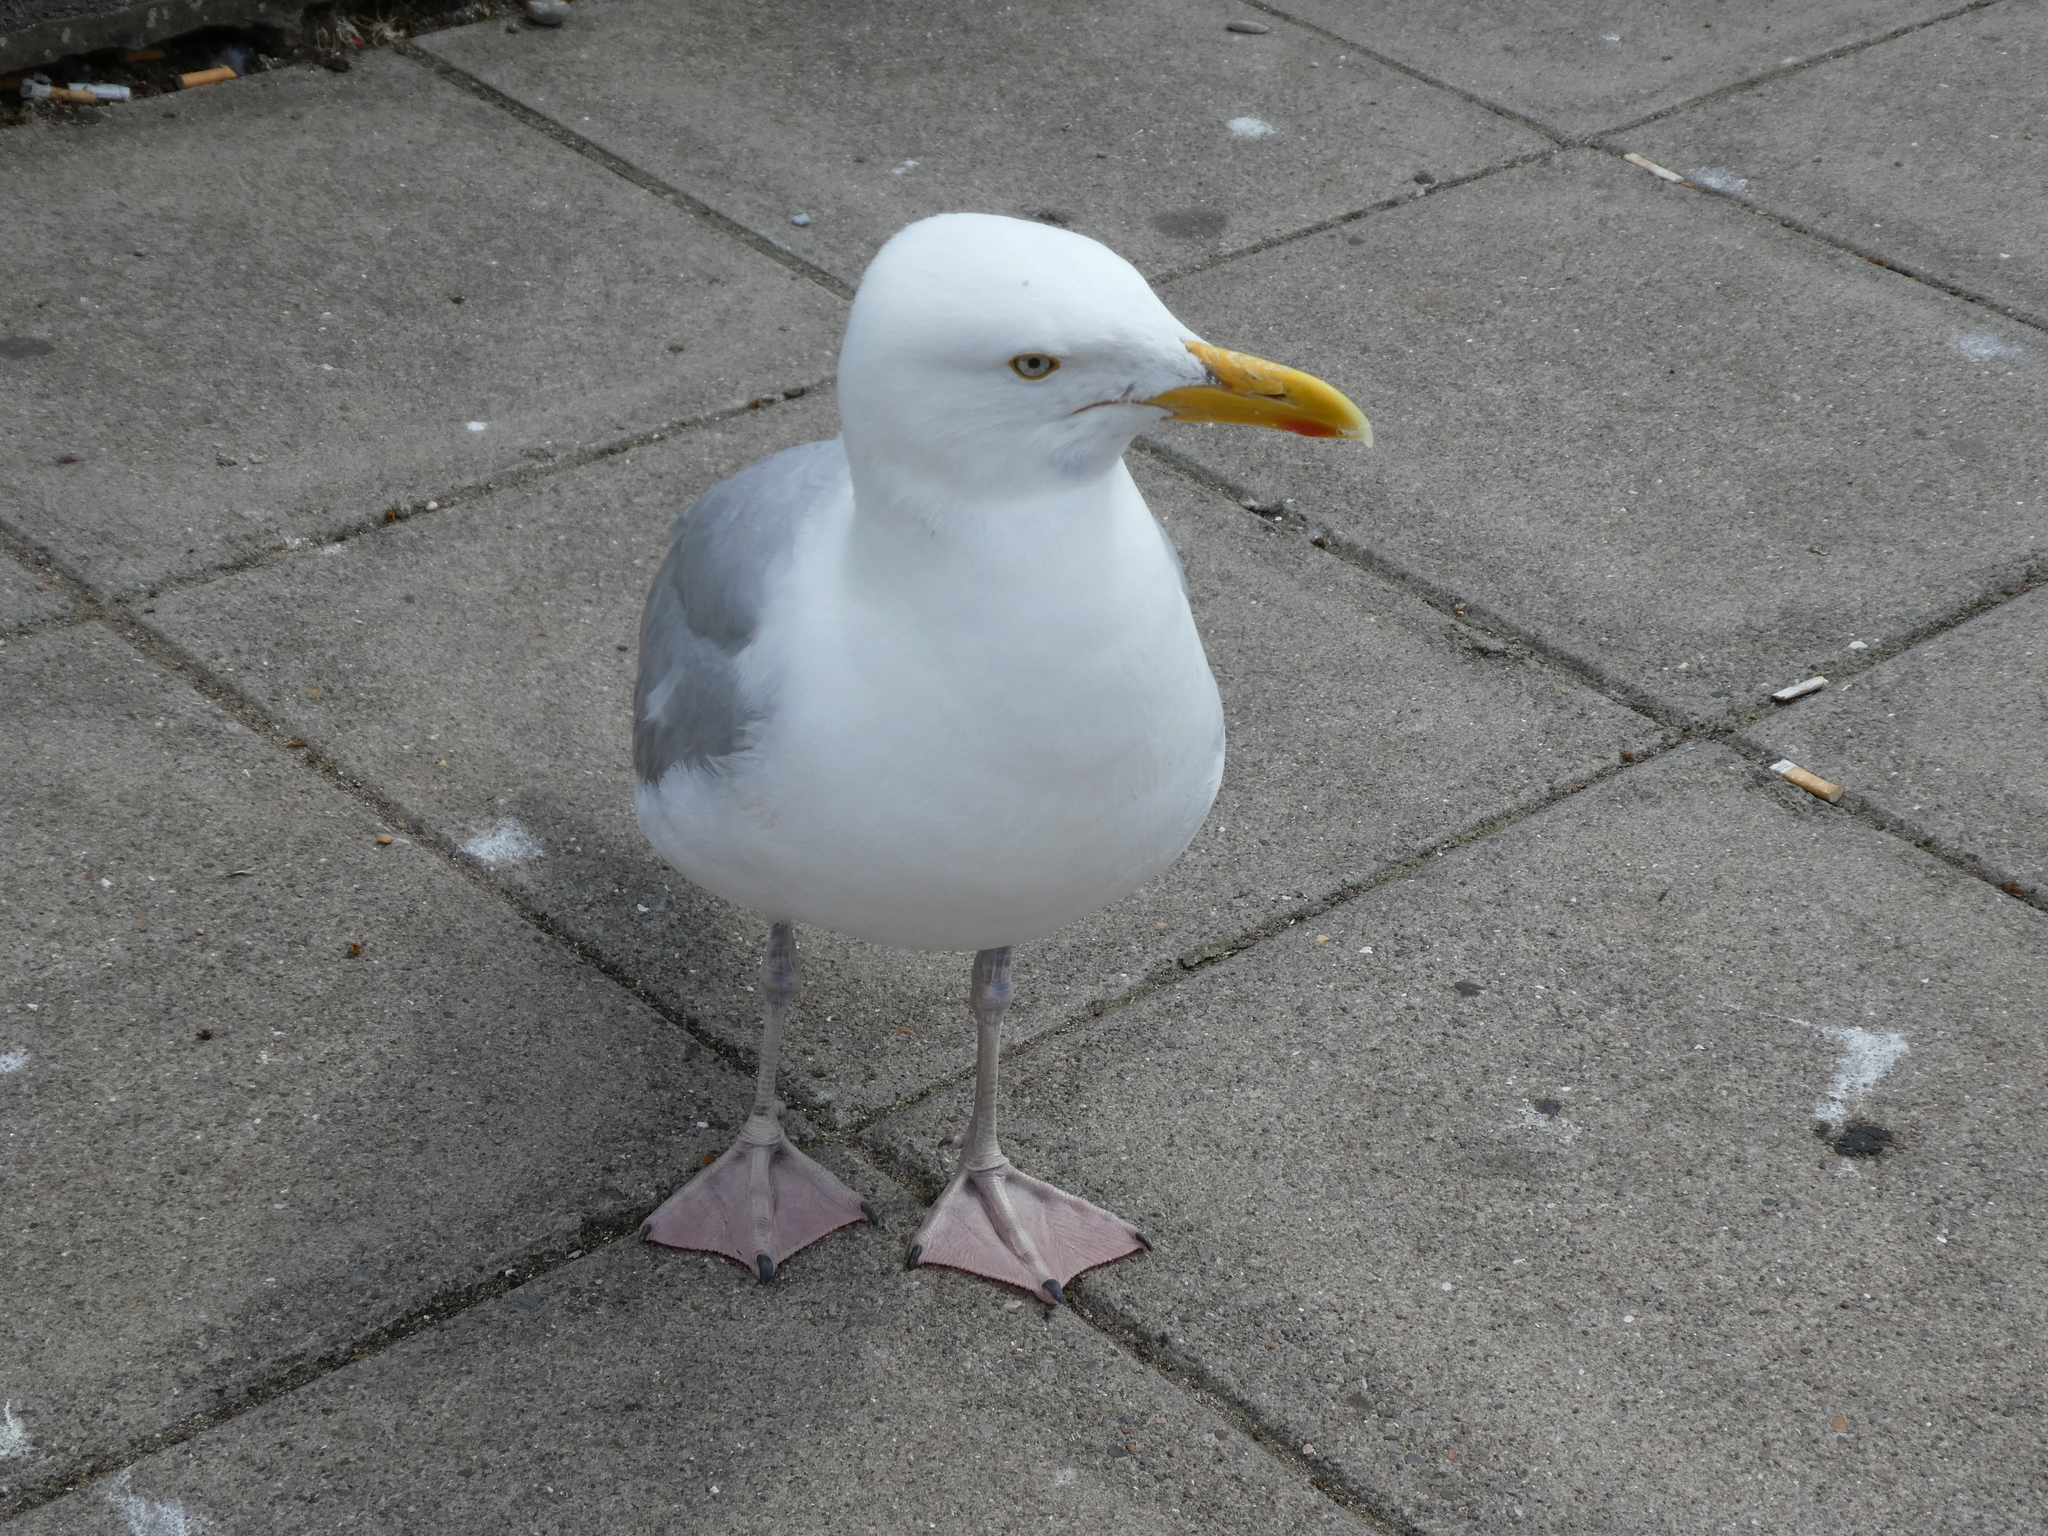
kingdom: Animalia
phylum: Chordata
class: Aves
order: Charadriiformes
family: Laridae
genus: Larus
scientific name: Larus argentatus
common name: Herring gull
